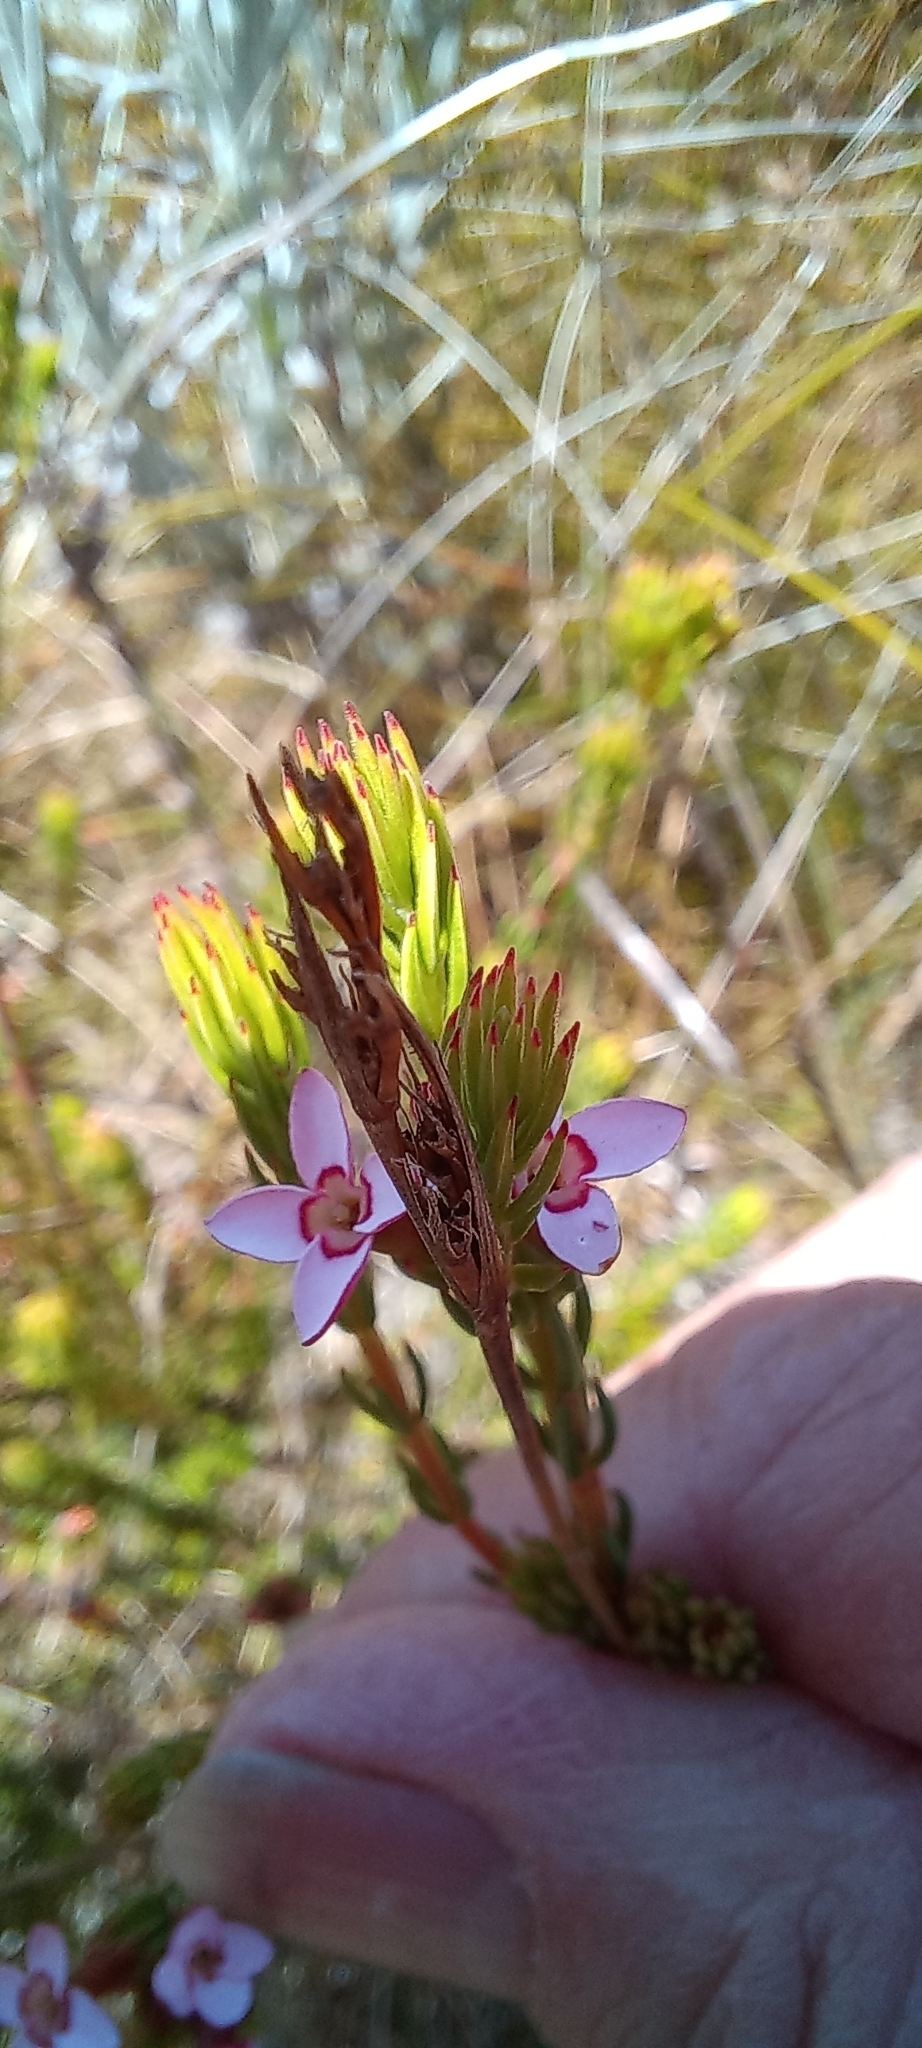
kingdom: Plantae
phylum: Tracheophyta
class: Magnoliopsida
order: Ericales
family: Ericaceae
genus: Erica
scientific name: Erica fastigiata
